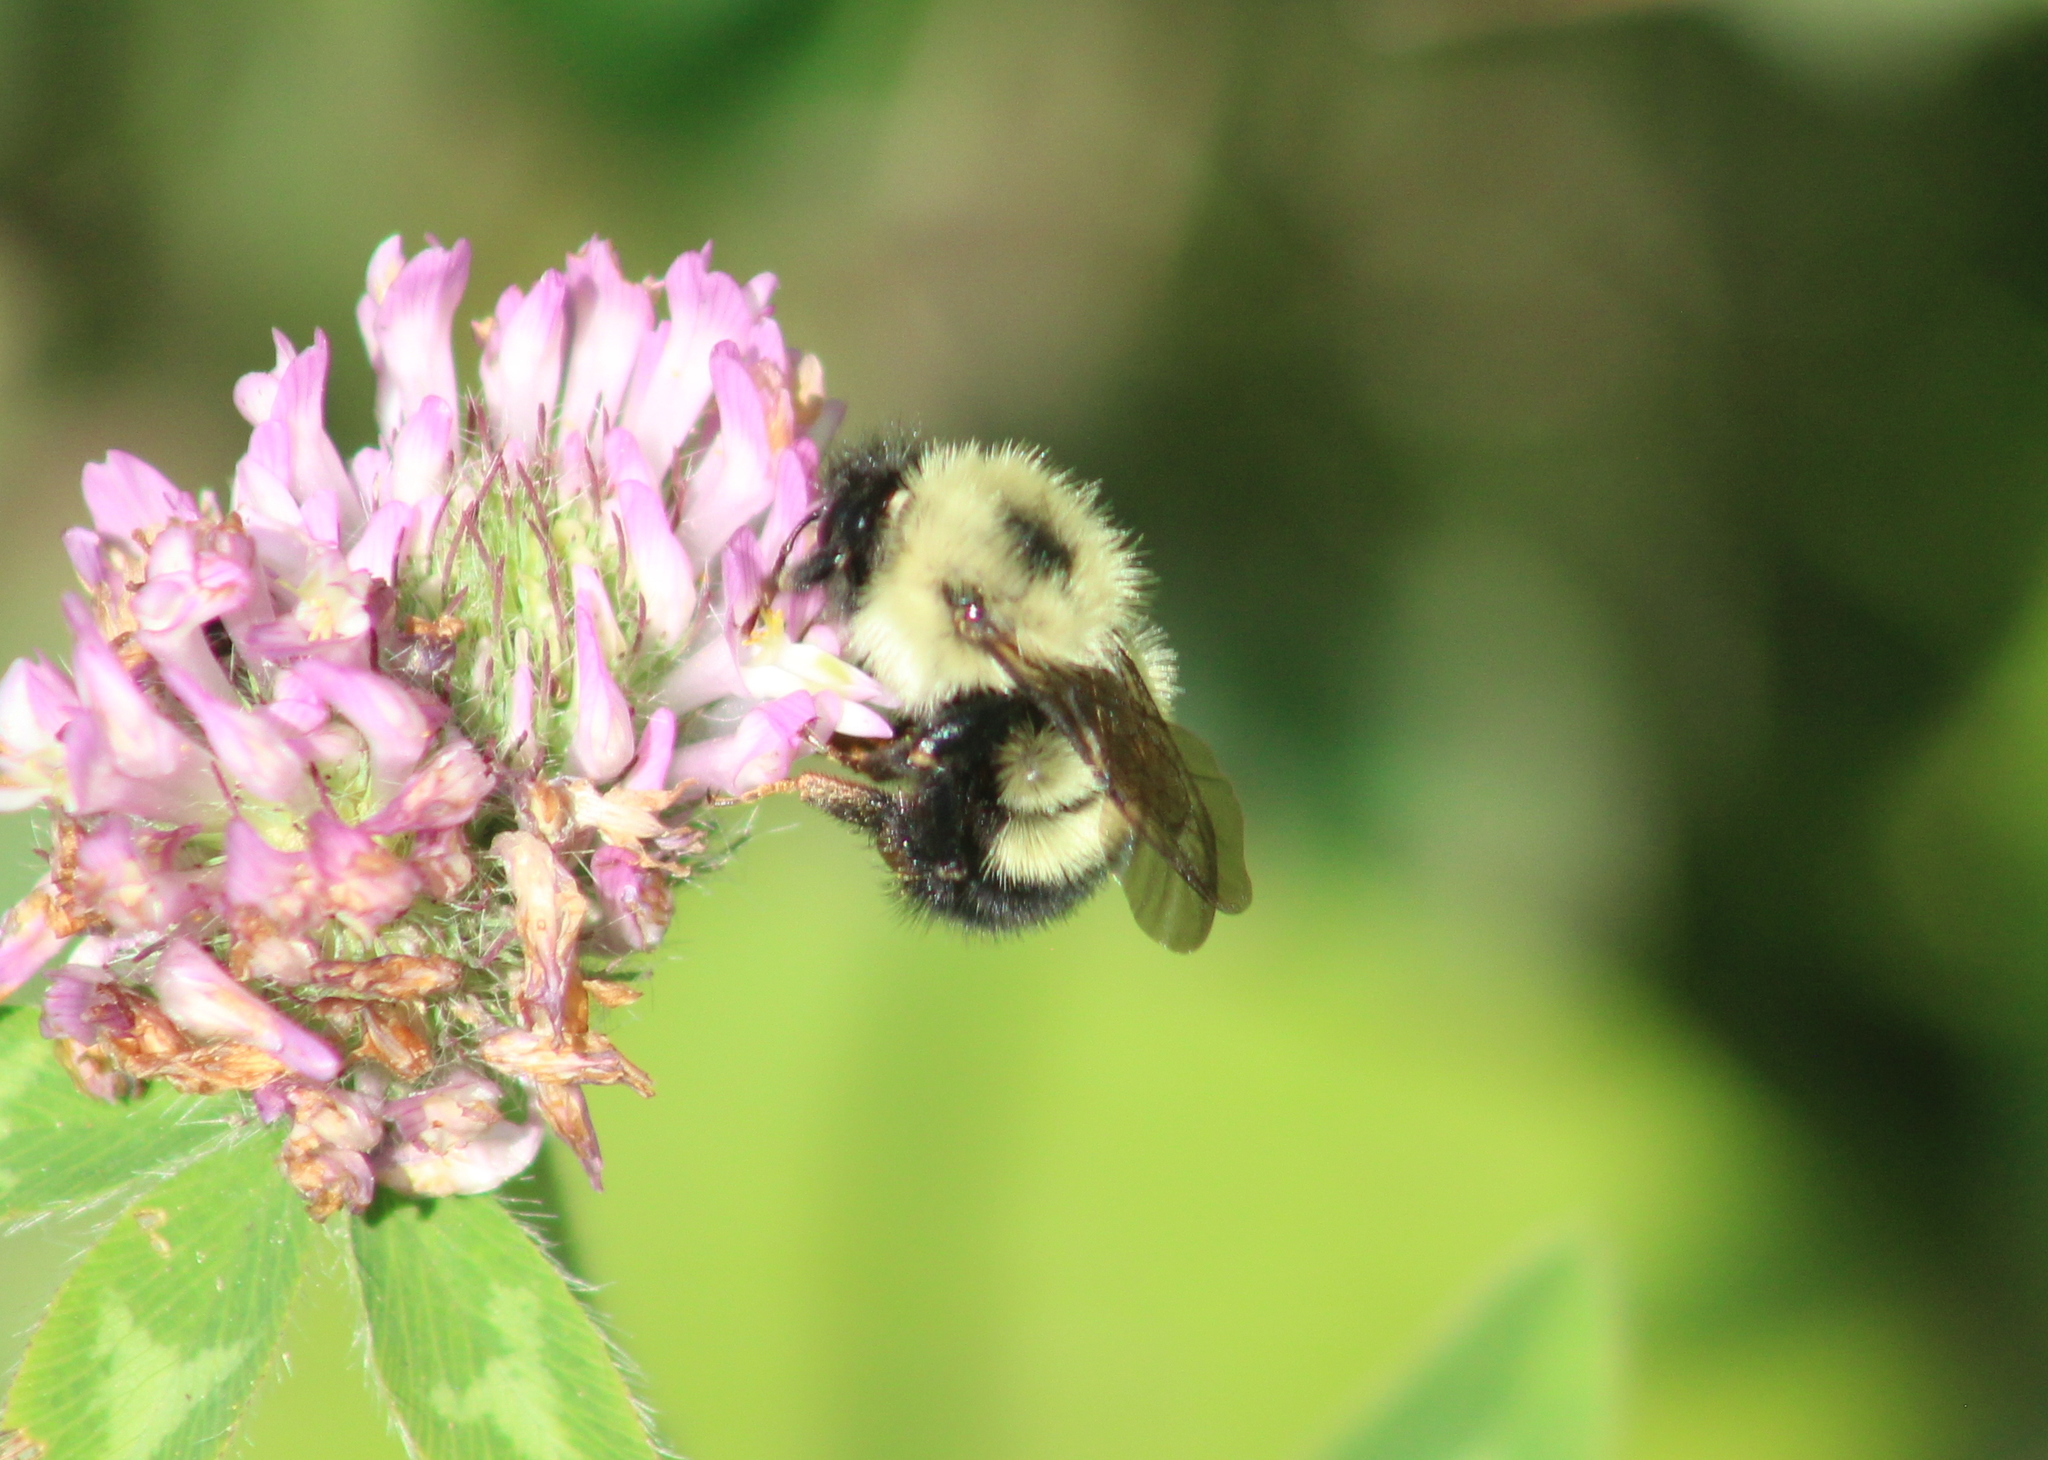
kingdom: Animalia
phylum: Arthropoda
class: Insecta
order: Hymenoptera
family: Apidae
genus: Bombus
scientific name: Bombus vagans
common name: Half-black bumble bee
